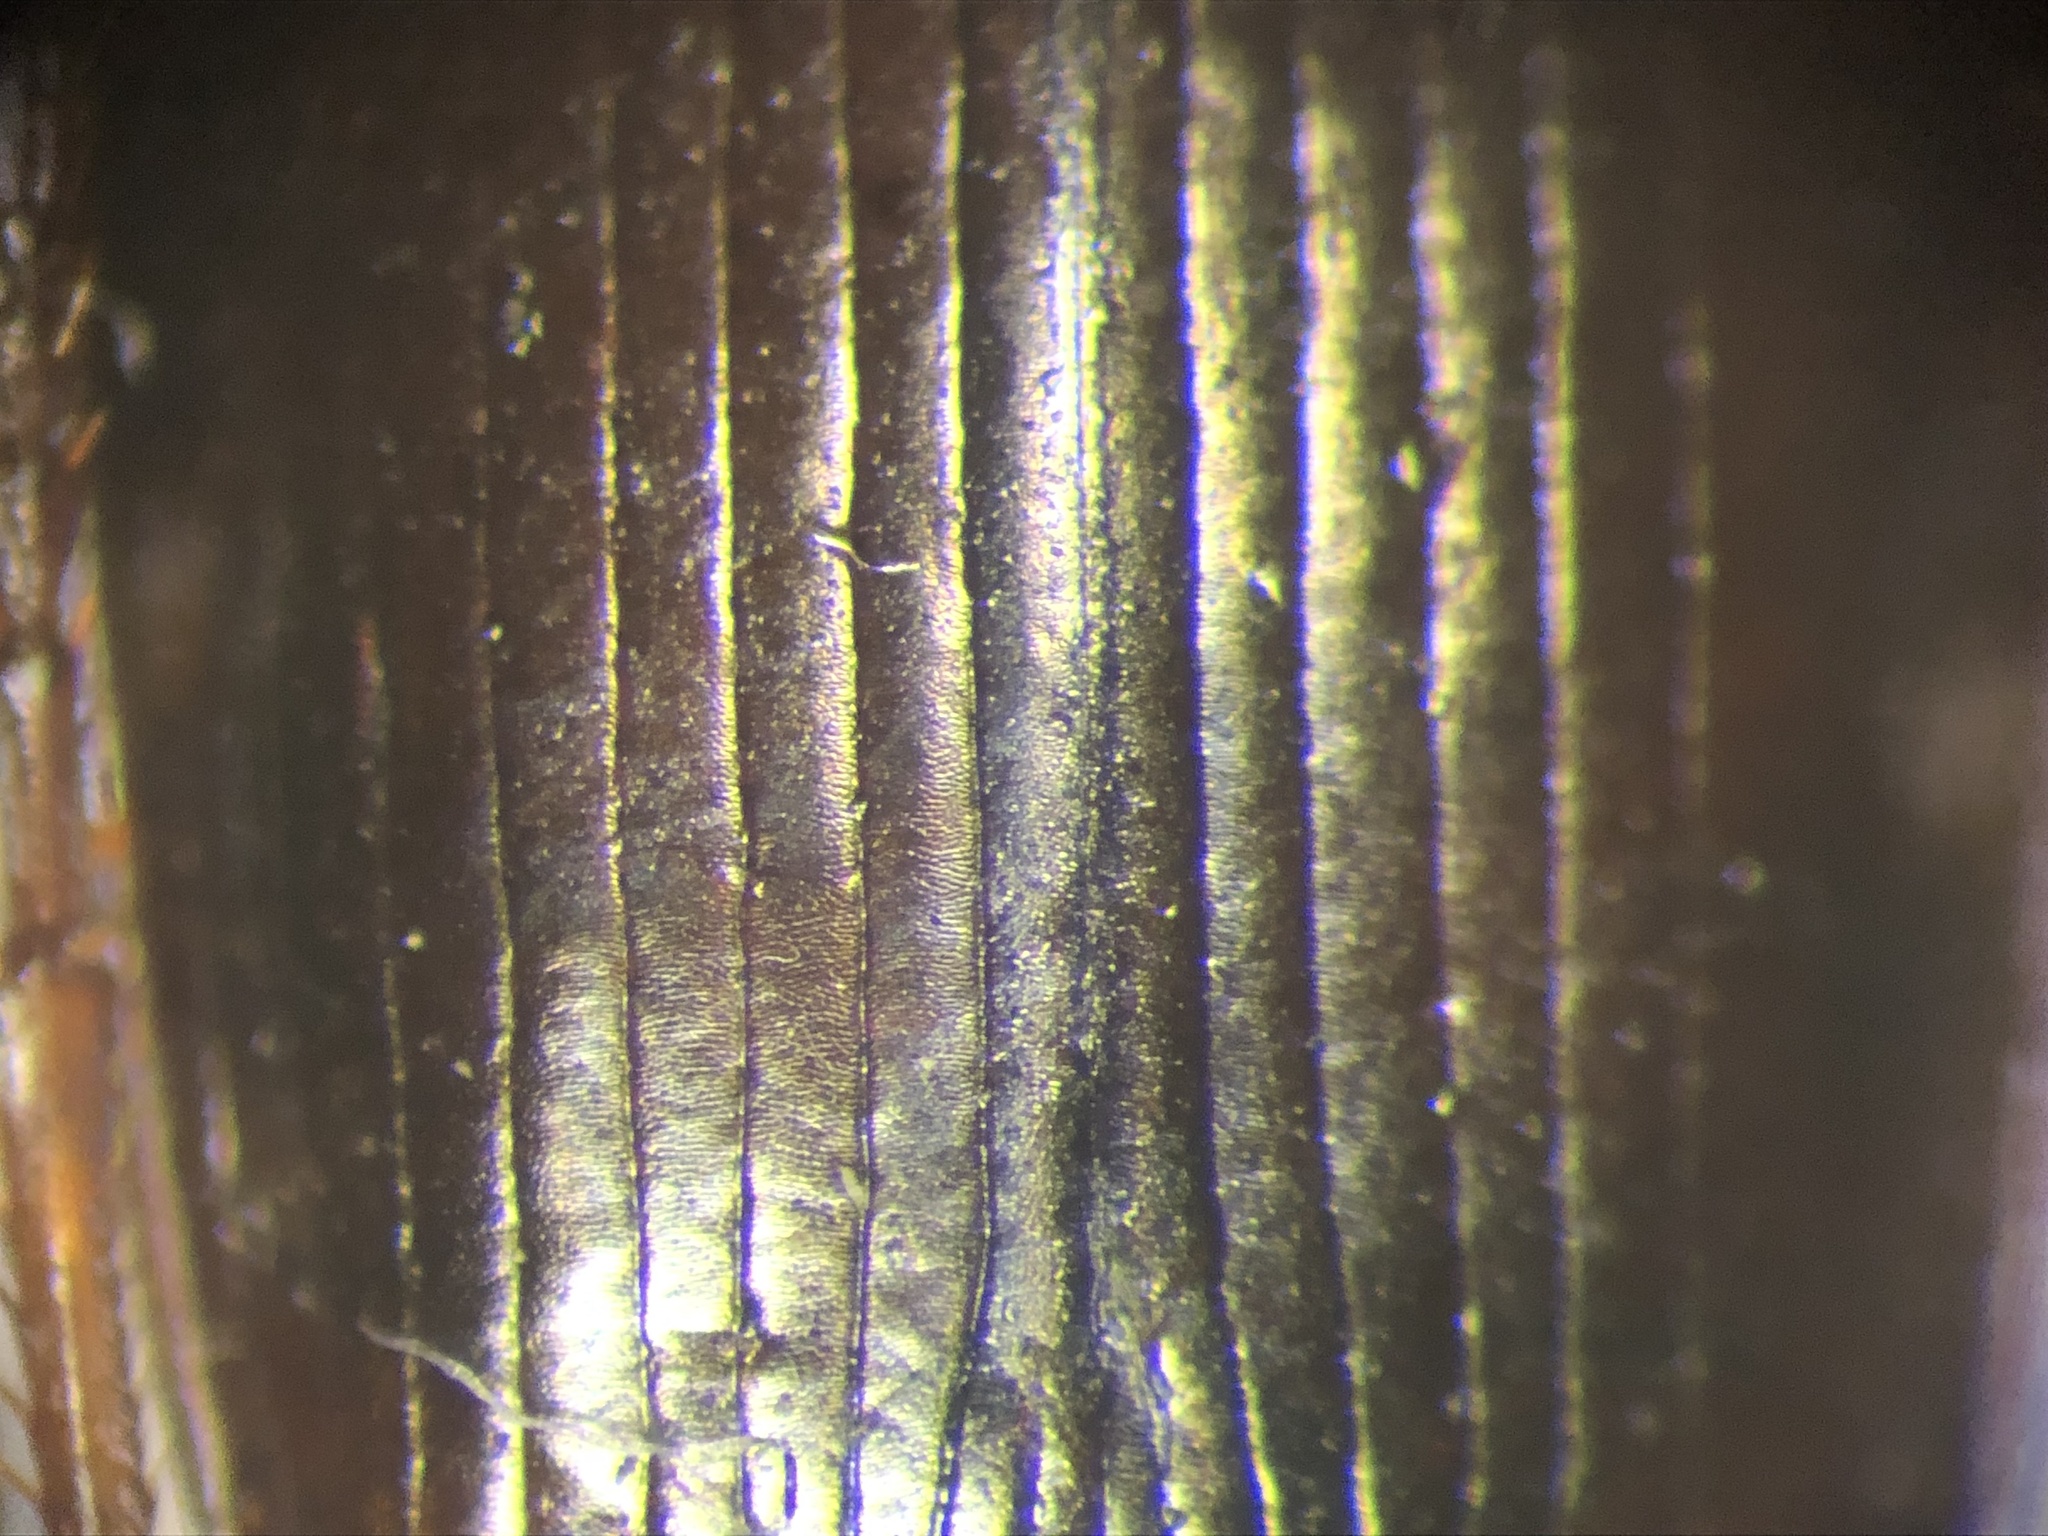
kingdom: Animalia
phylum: Arthropoda
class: Insecta
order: Coleoptera
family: Carabidae
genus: Agonum
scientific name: Agonum retractum
